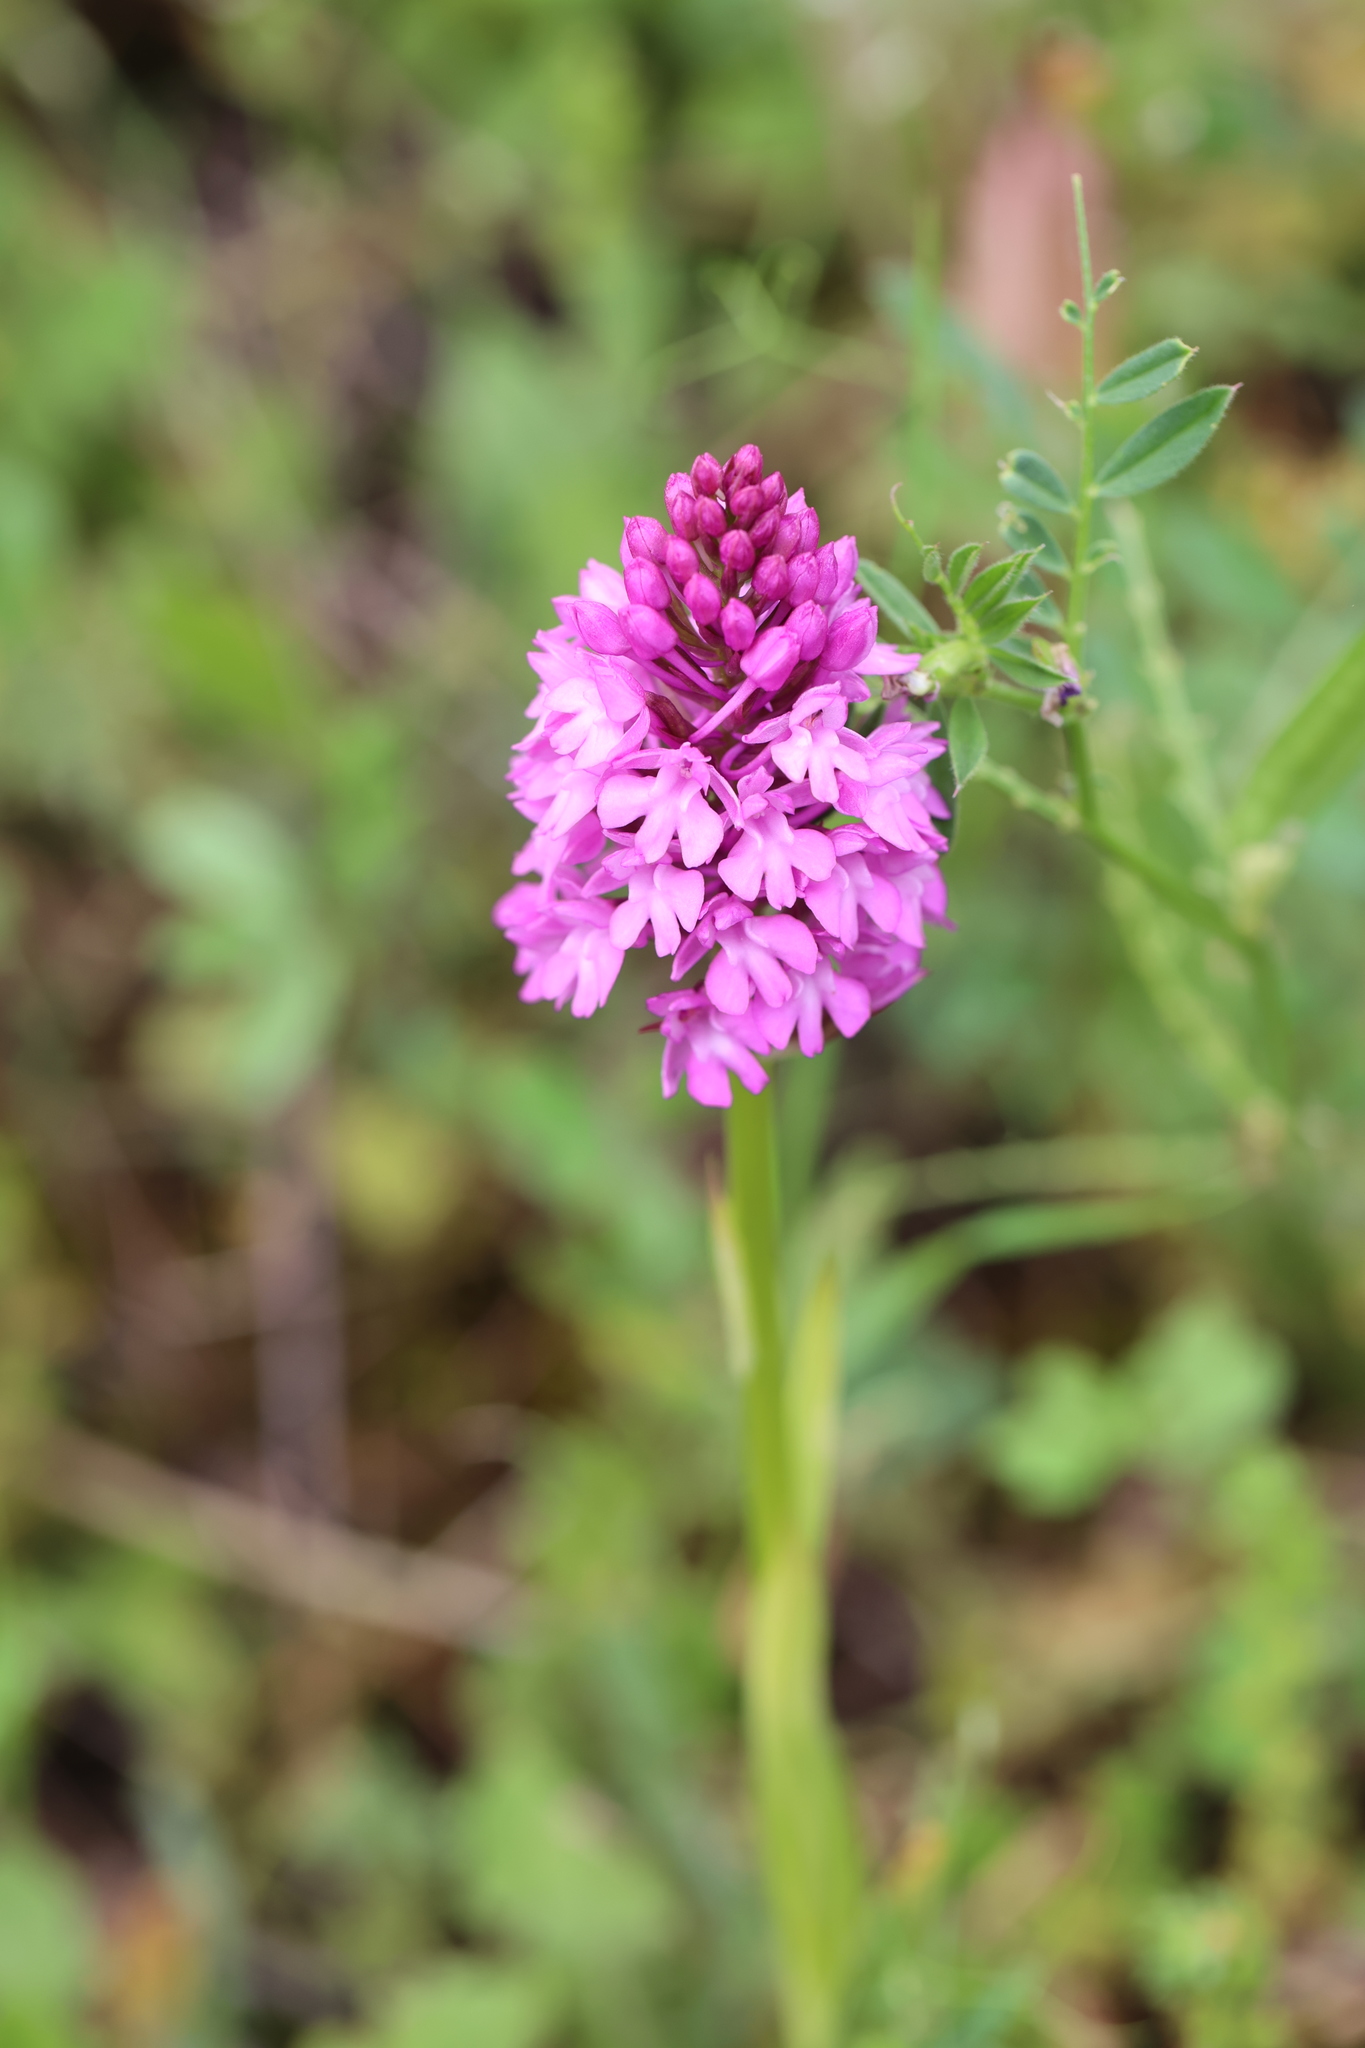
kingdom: Plantae
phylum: Tracheophyta
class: Liliopsida
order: Asparagales
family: Orchidaceae
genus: Anacamptis
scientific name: Anacamptis pyramidalis
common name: Pyramidal orchid
